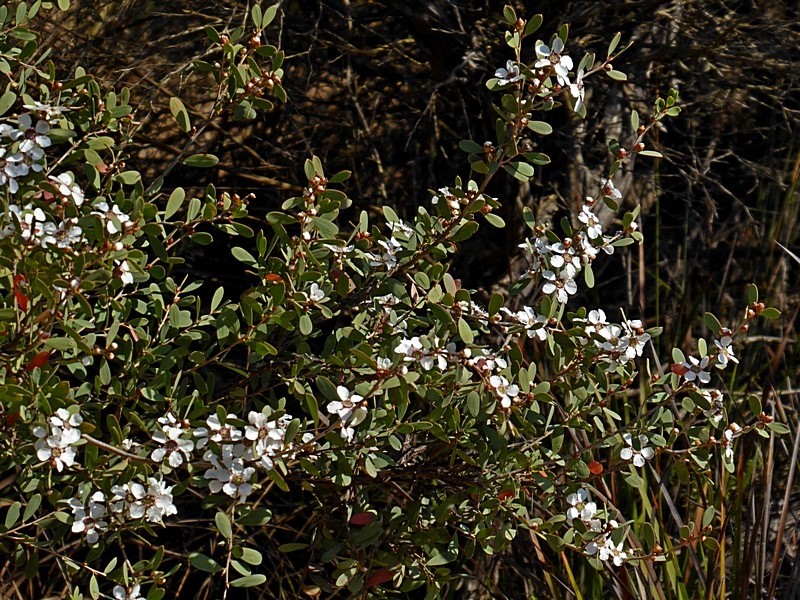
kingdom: Plantae
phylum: Tracheophyta
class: Magnoliopsida
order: Myrtales
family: Myrtaceae
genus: Leptospermum
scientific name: Leptospermum laevigatum
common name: Australian teatree
